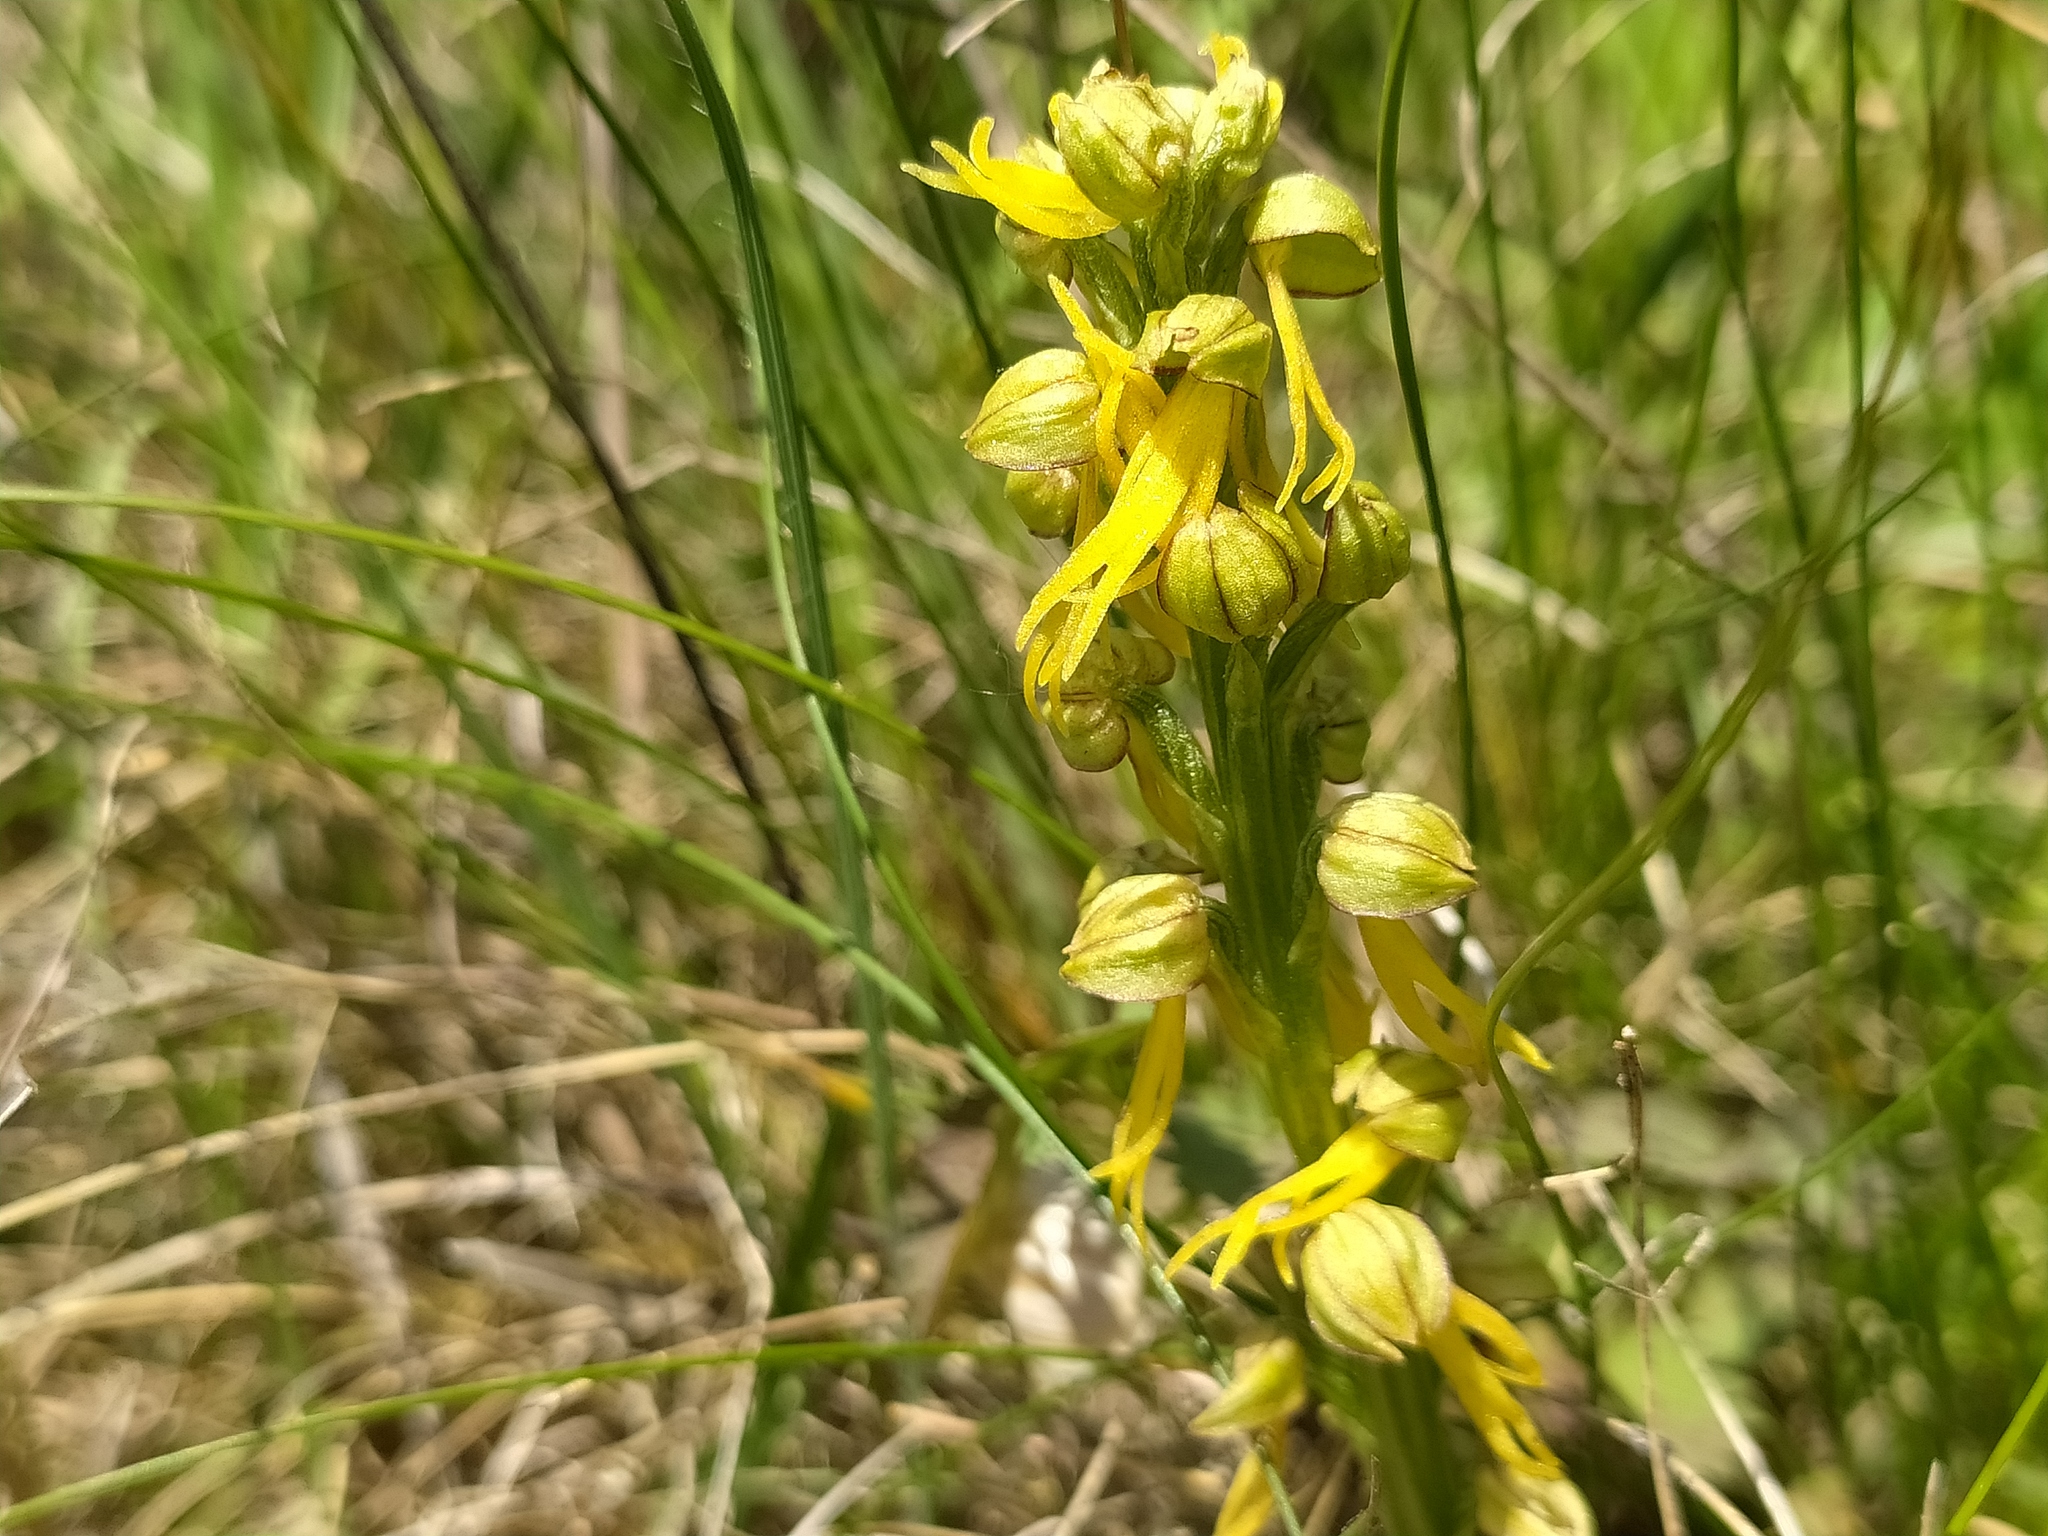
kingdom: Plantae
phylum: Tracheophyta
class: Liliopsida
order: Asparagales
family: Orchidaceae
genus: Orchis
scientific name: Orchis anthropophora
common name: Man orchid
